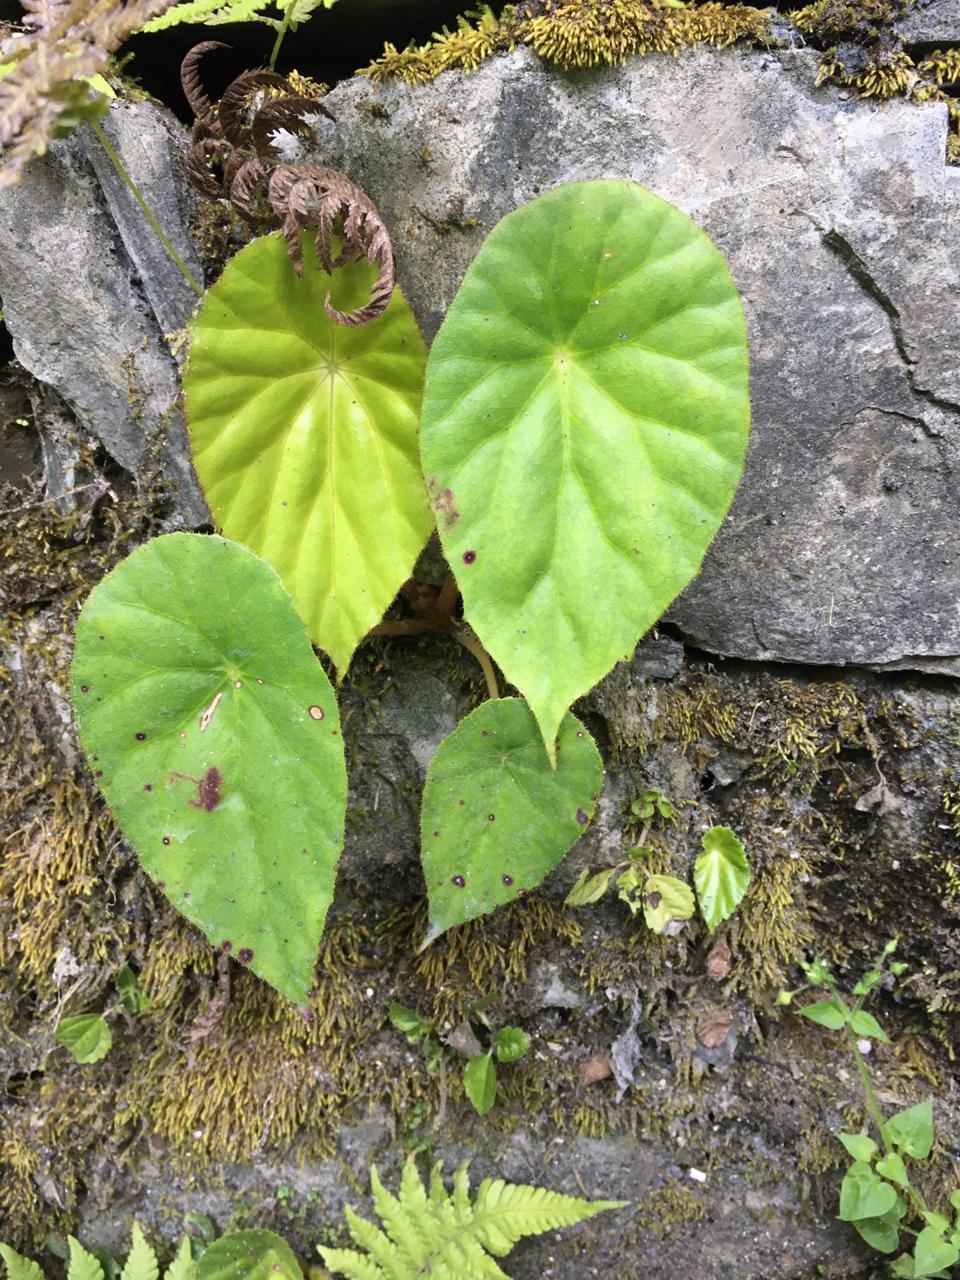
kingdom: Plantae
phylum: Tracheophyta
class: Magnoliopsida
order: Cucurbitales
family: Begoniaceae
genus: Begonia
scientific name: Begonia nelumbiifolia
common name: Lilypad begonia
